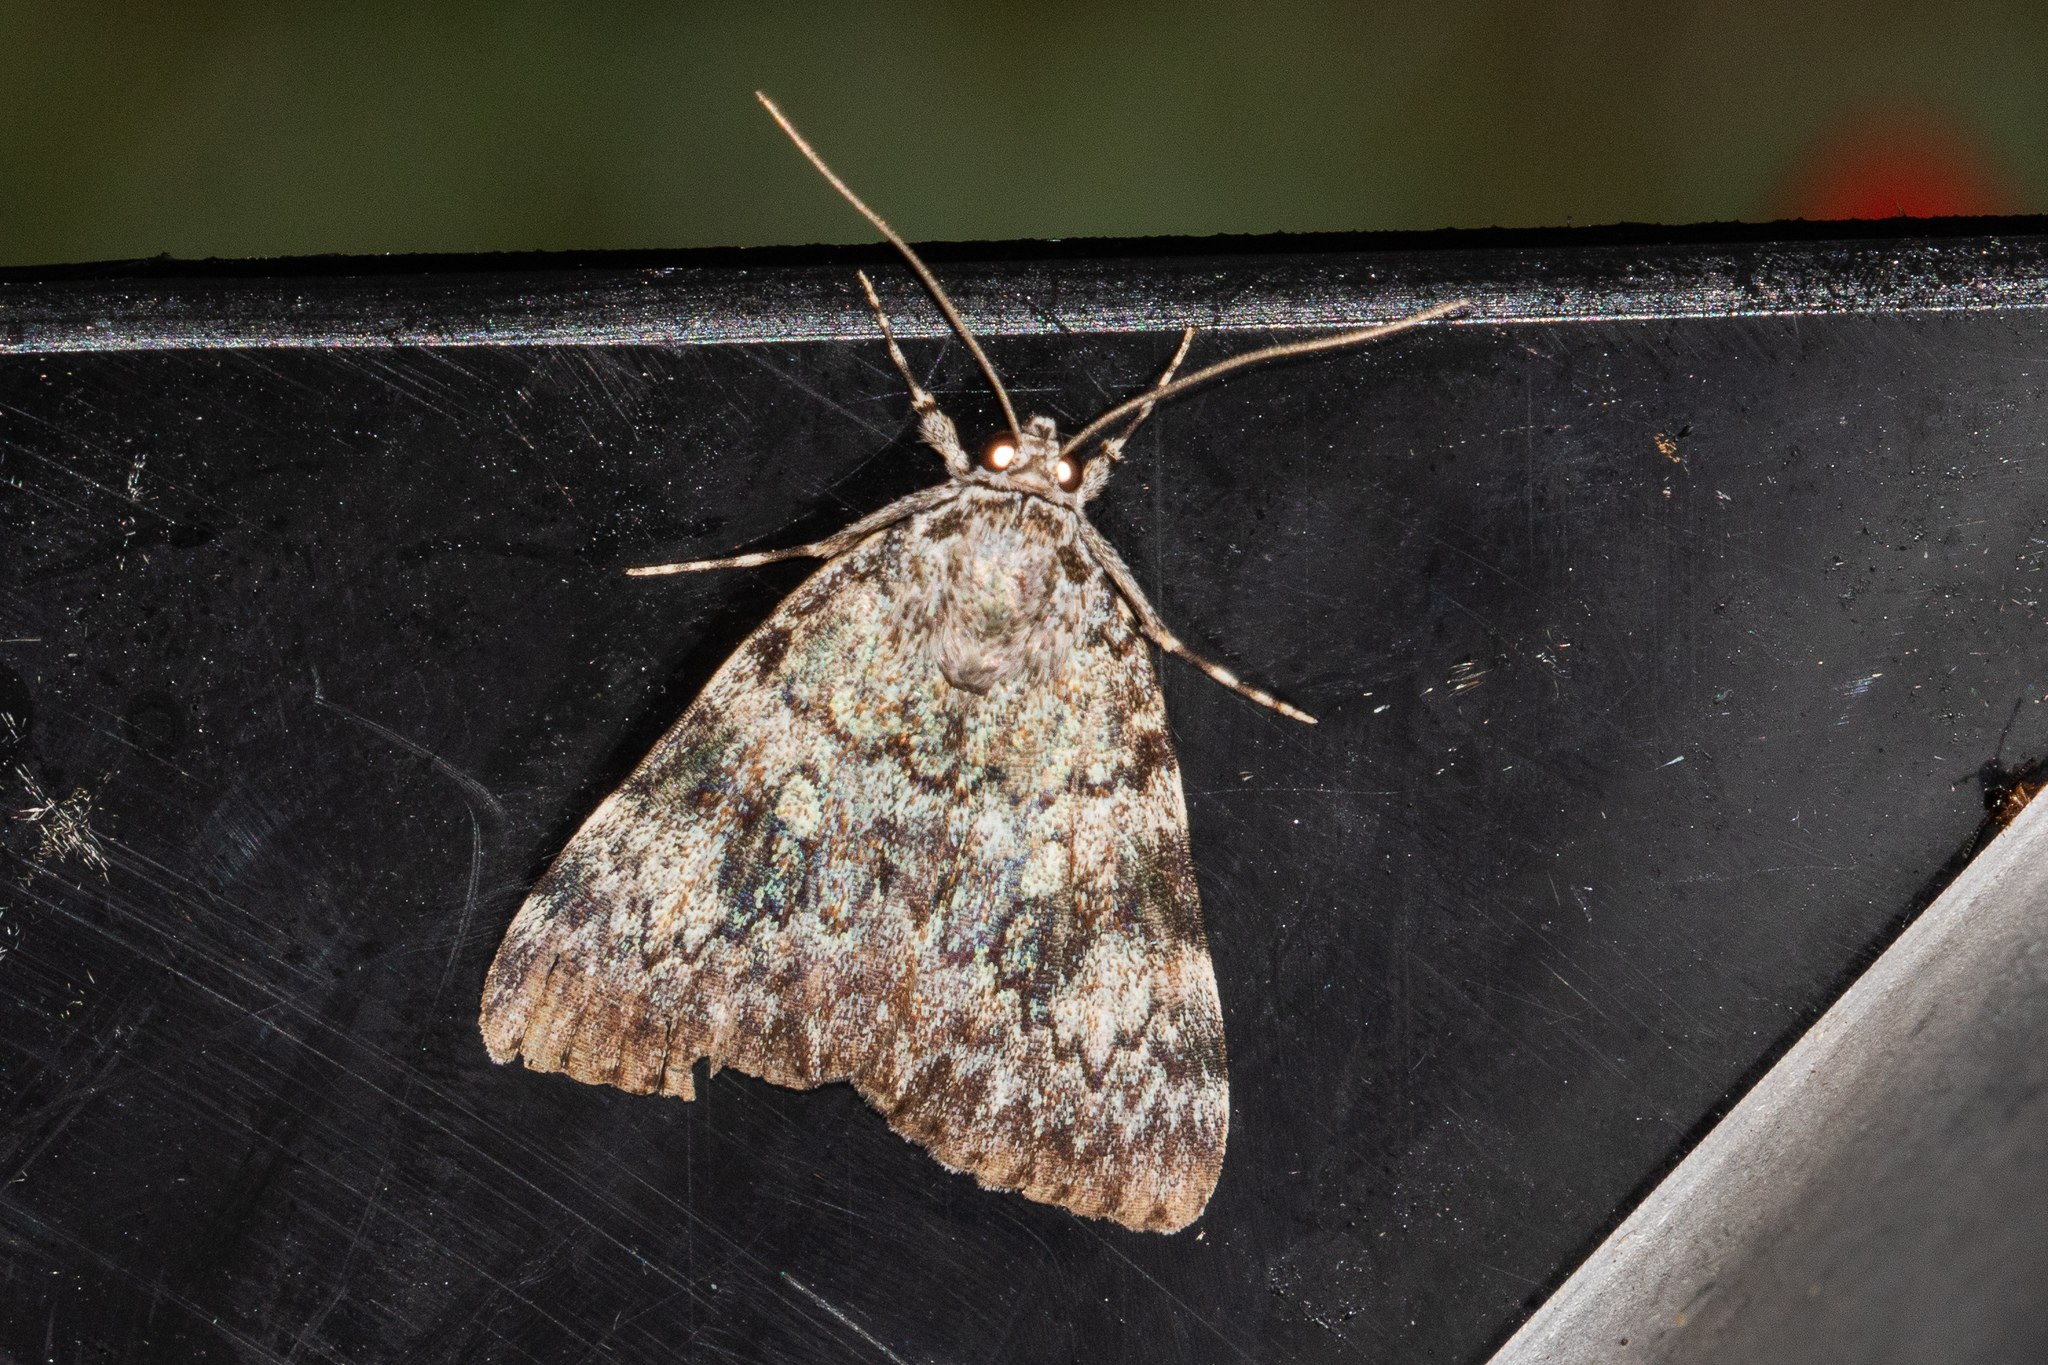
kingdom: Animalia
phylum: Arthropoda
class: Insecta
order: Lepidoptera
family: Erebidae
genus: Catocala
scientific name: Catocala lineella
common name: Little lined underwing
